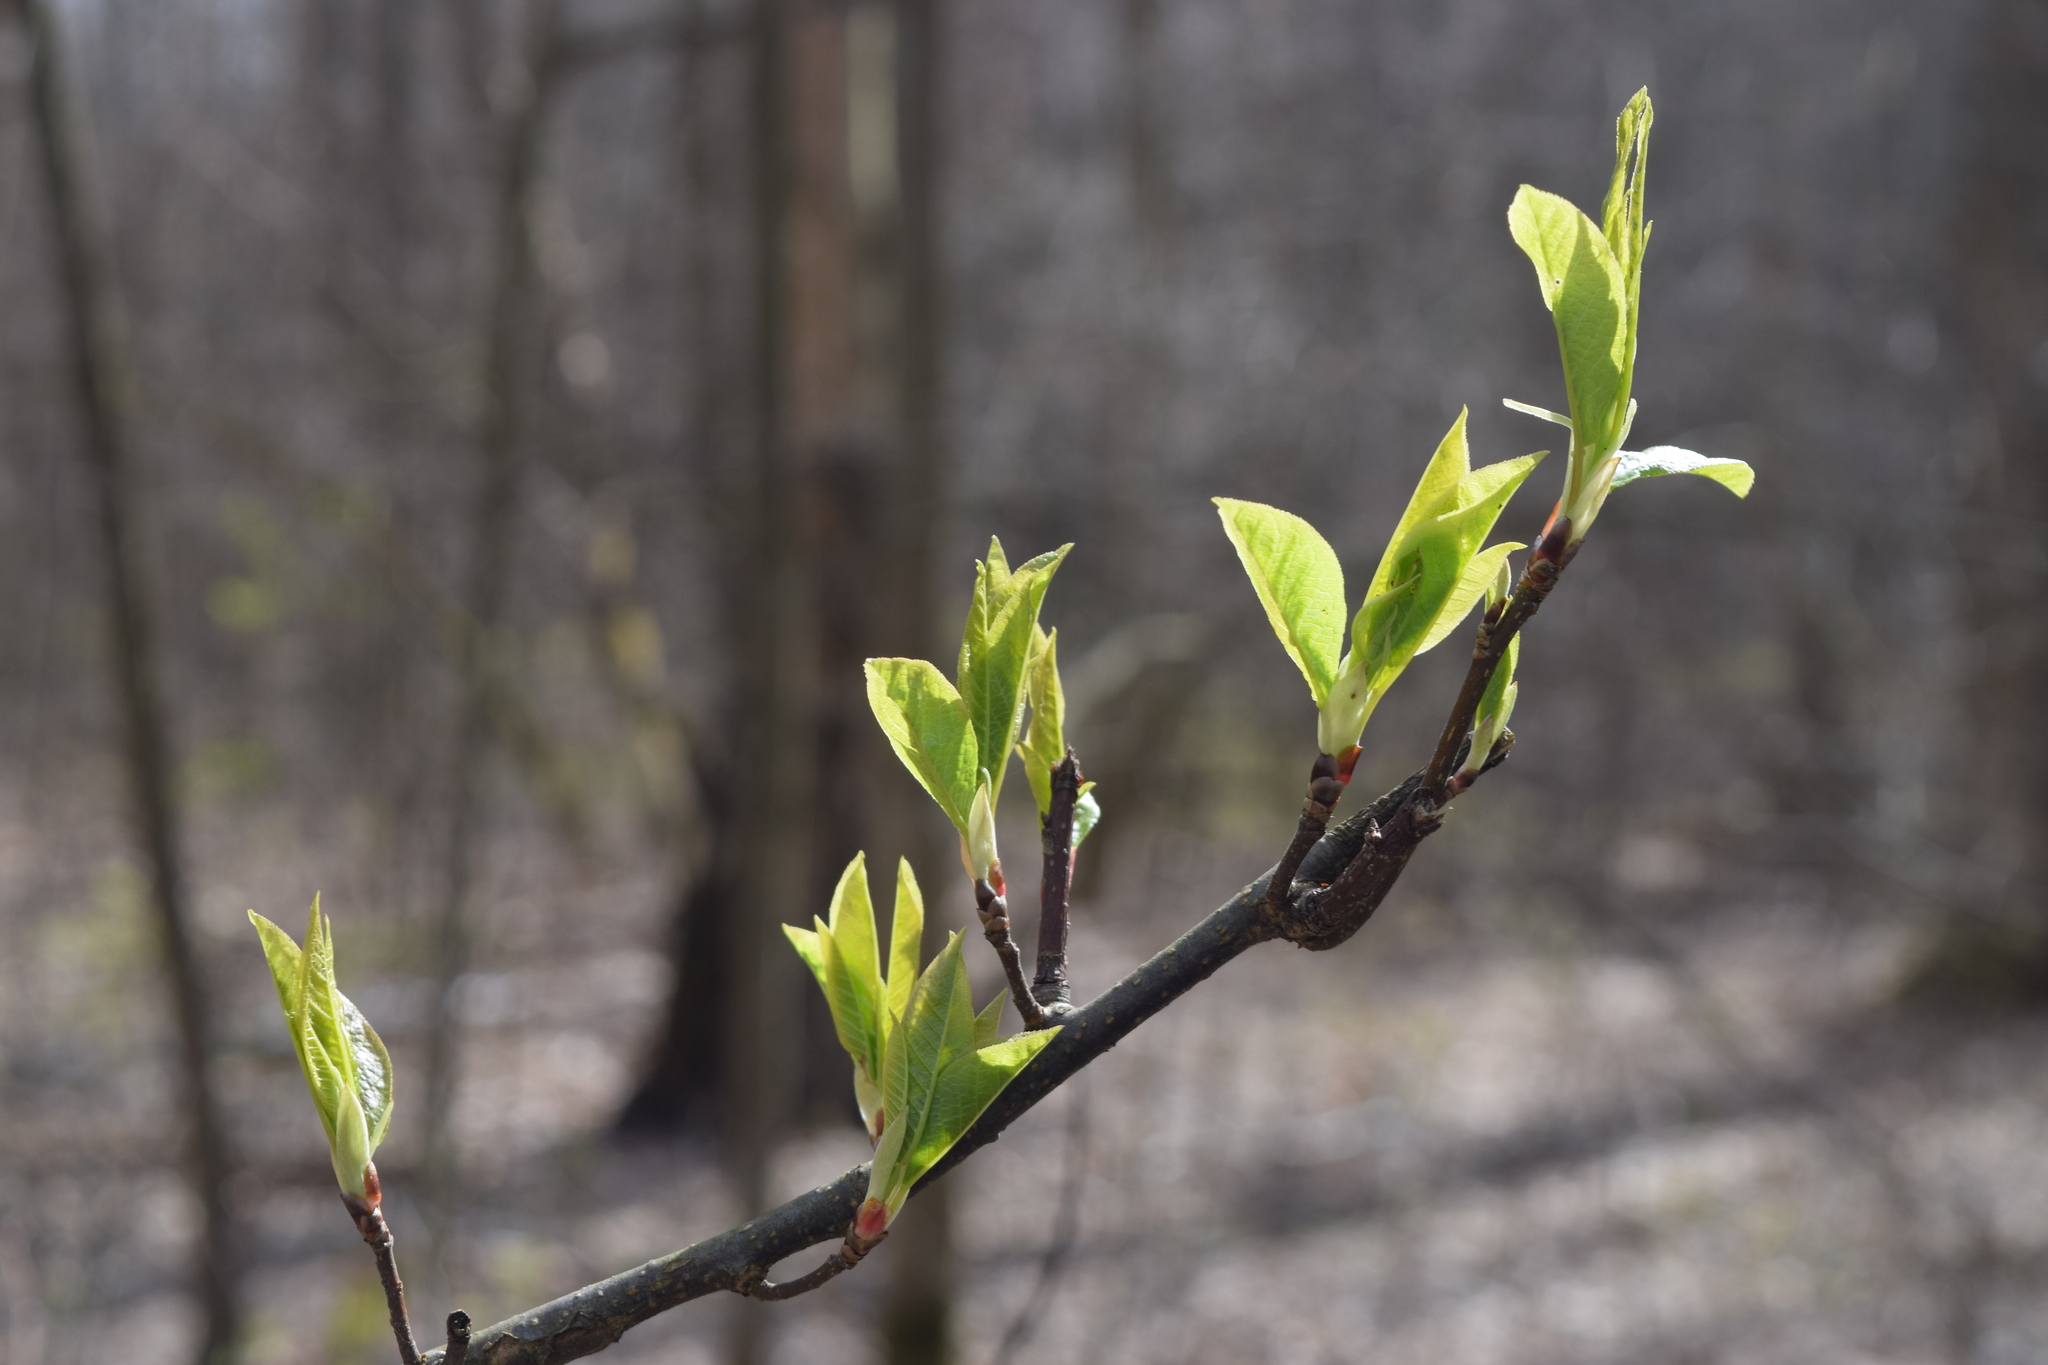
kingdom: Plantae
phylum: Tracheophyta
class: Magnoliopsida
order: Rosales
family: Rosaceae
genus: Prunus
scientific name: Prunus padus
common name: Bird cherry
